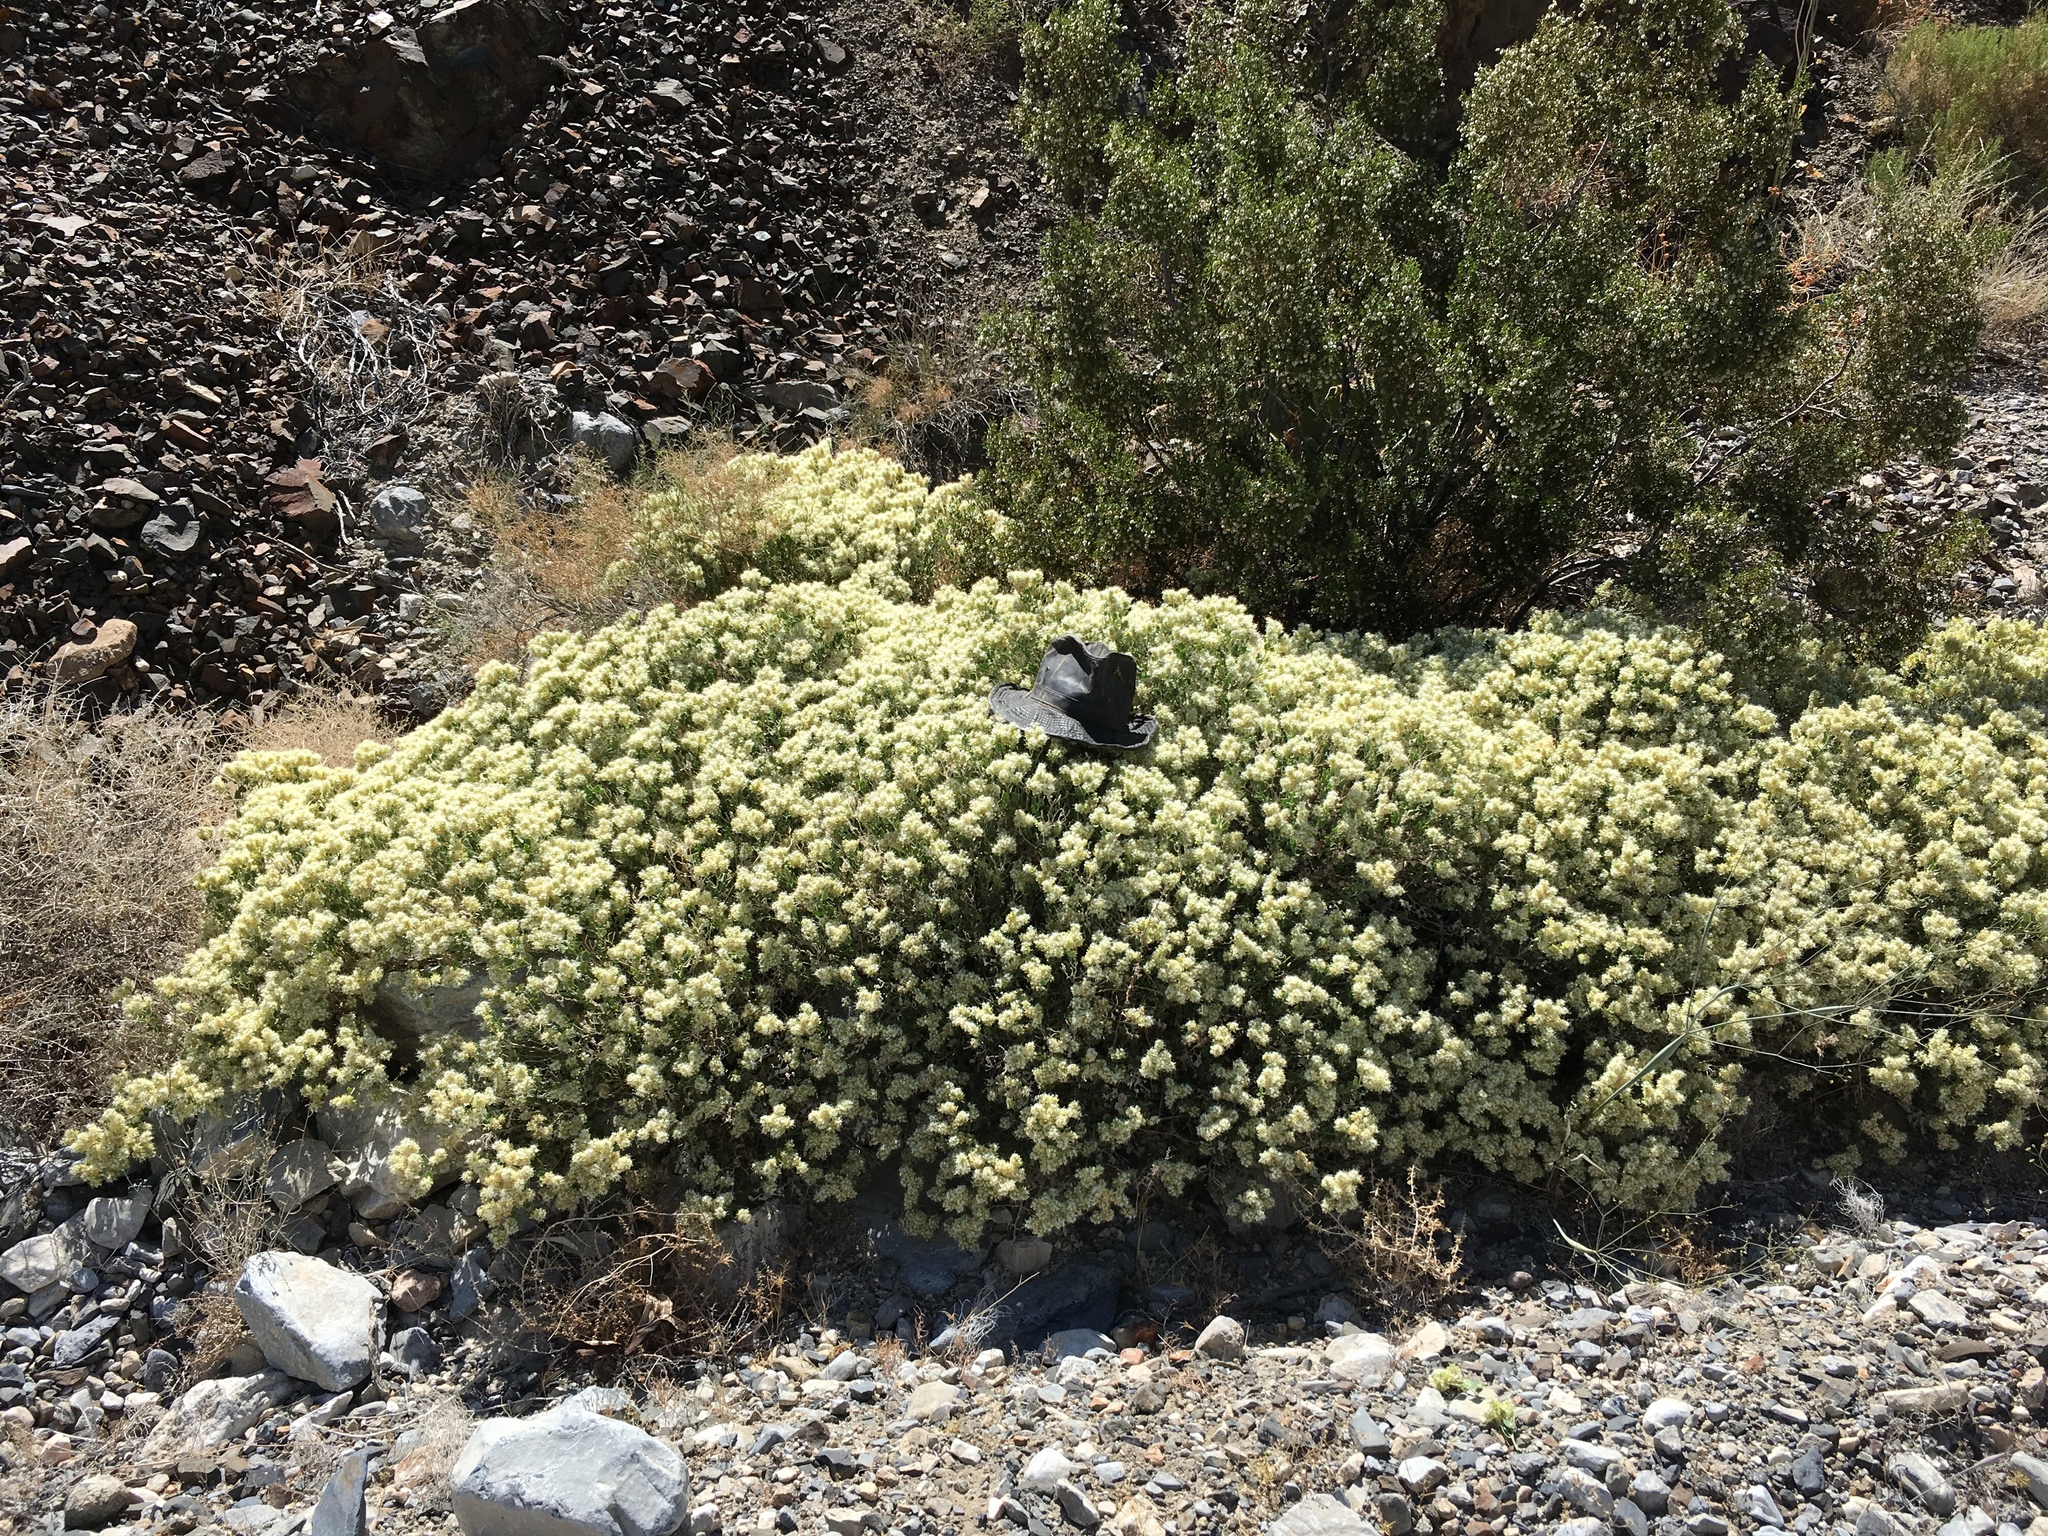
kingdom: Plantae
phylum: Tracheophyta
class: Magnoliopsida
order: Cornales
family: Loasaceae
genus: Petalonyx
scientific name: Petalonyx nitidus
